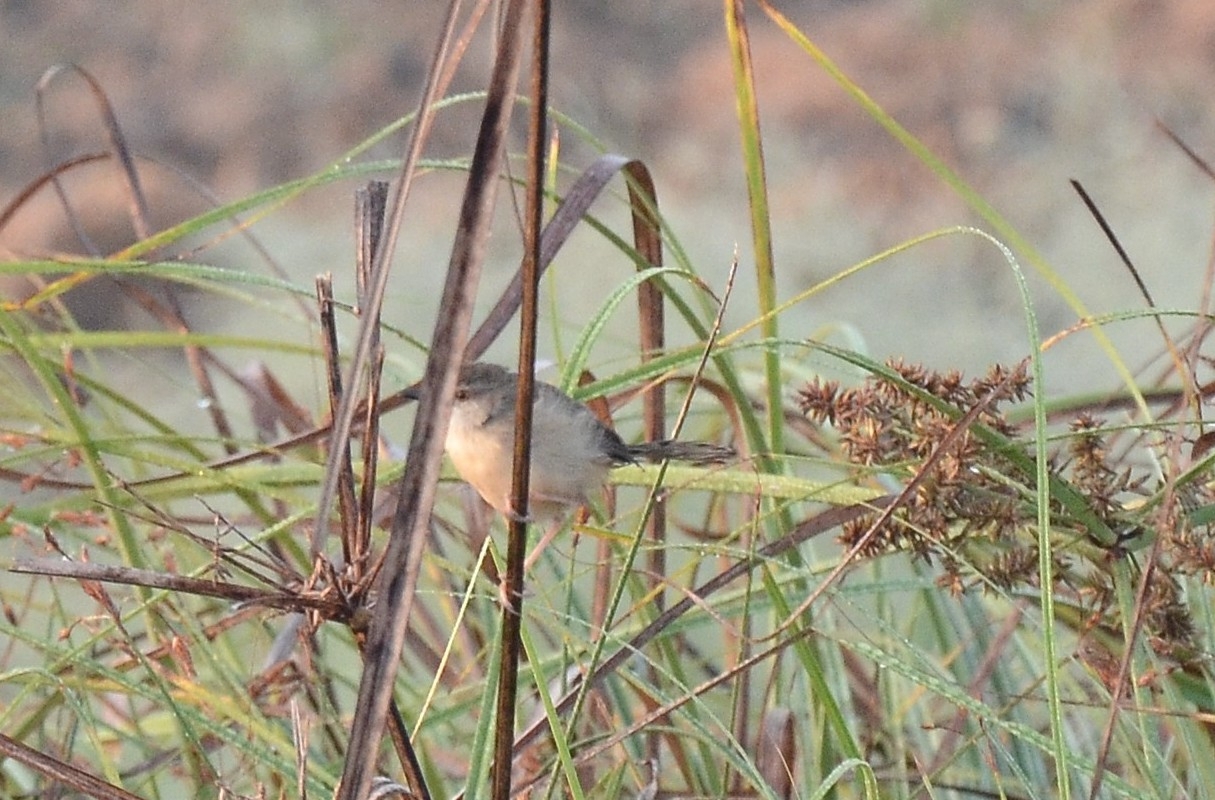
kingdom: Animalia
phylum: Chordata
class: Aves
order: Passeriformes
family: Cisticolidae
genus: Prinia
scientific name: Prinia inornata
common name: Plain prinia
